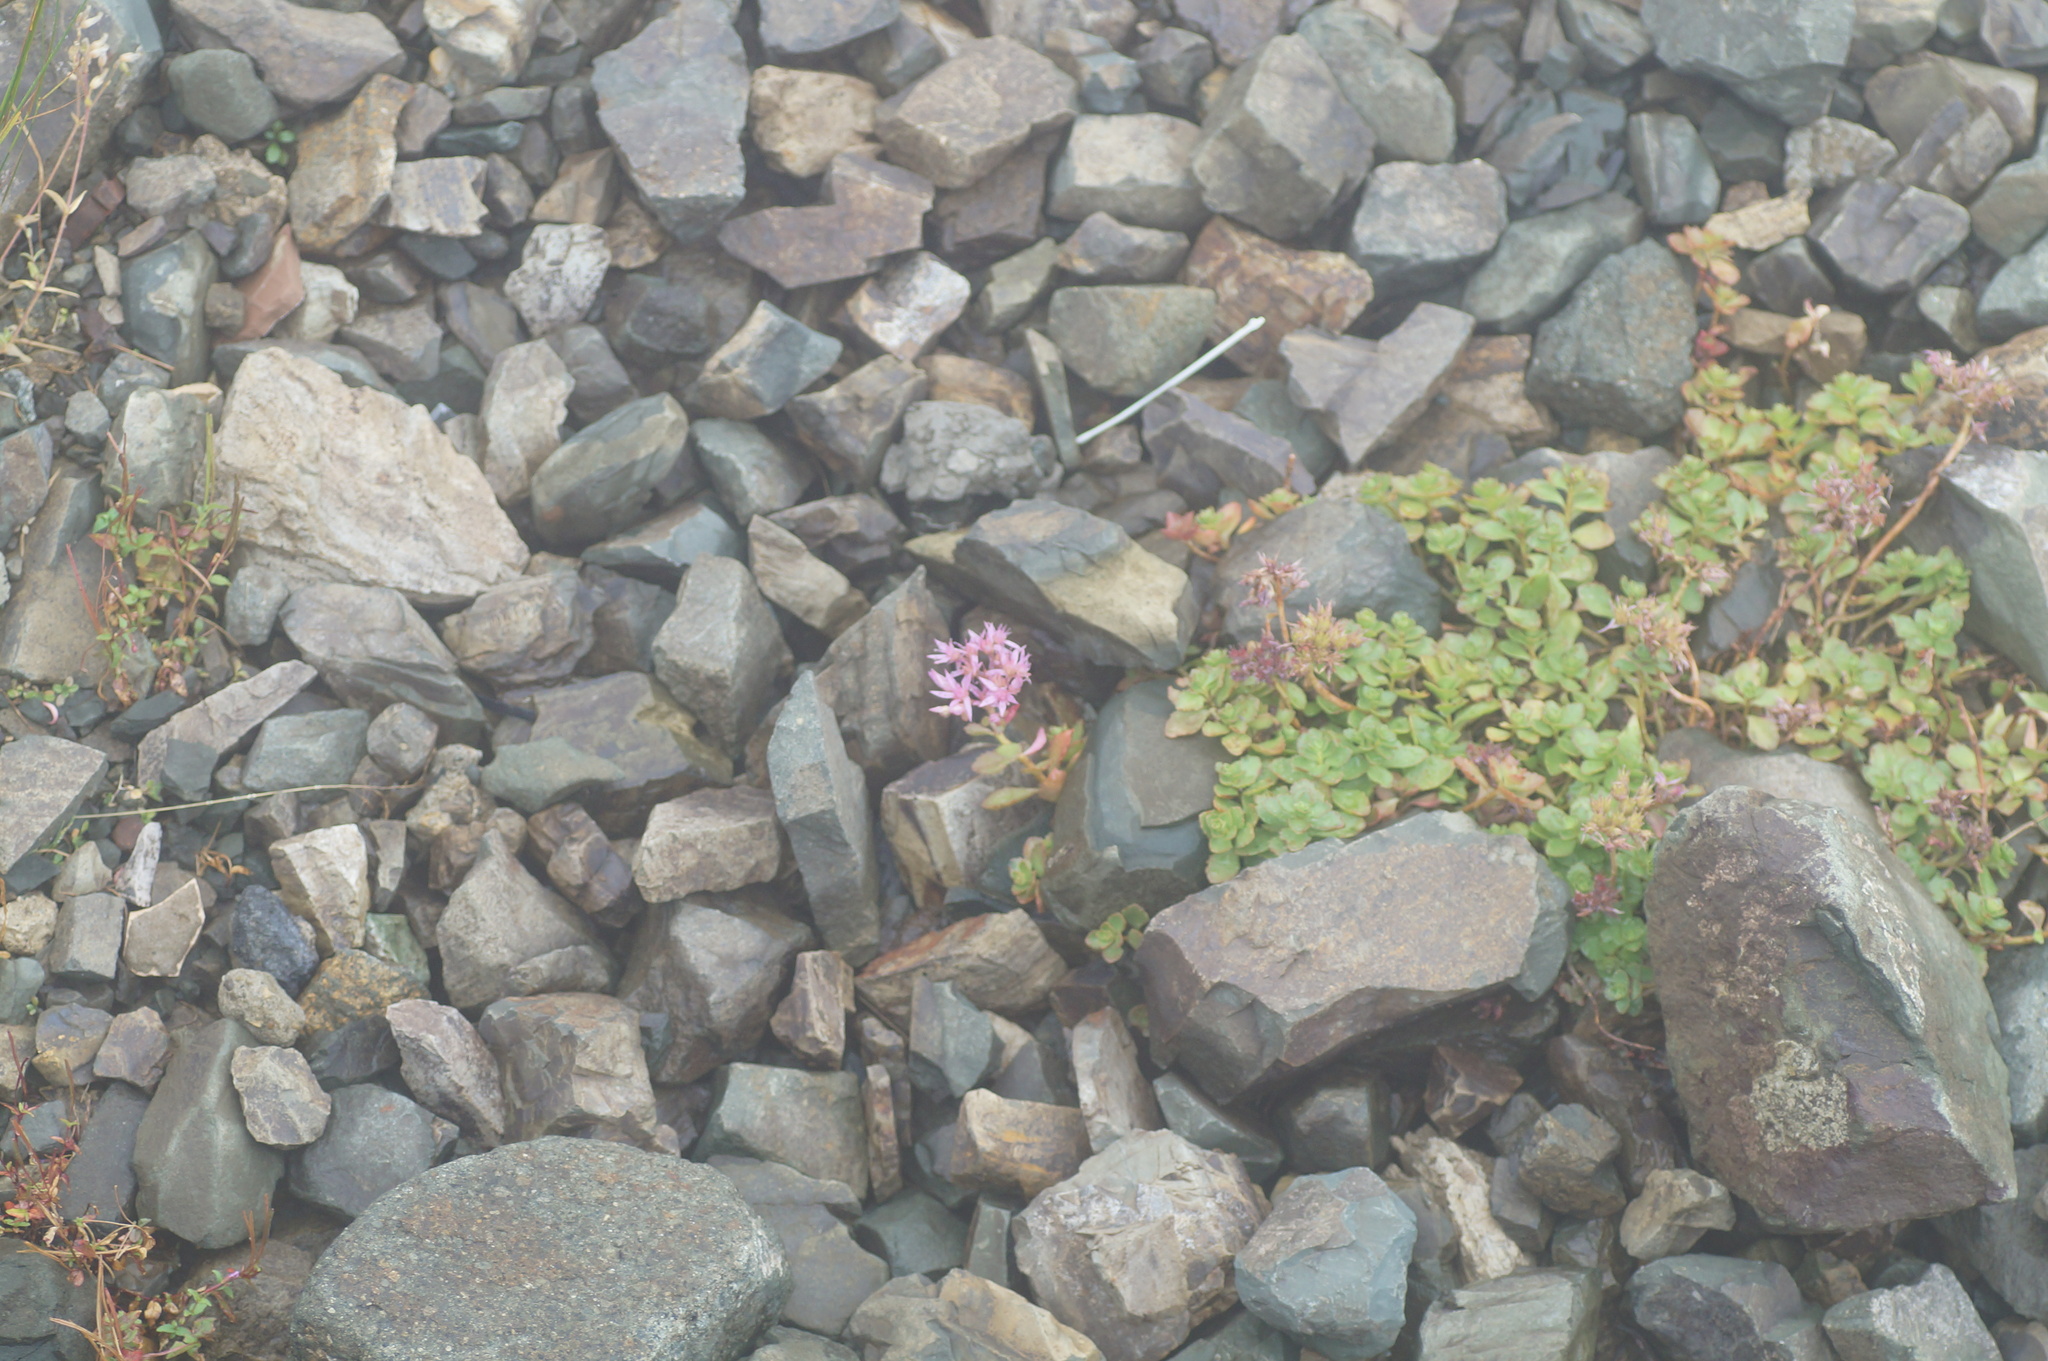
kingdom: Plantae
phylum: Tracheophyta
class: Magnoliopsida
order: Saxifragales
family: Crassulaceae
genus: Phedimus
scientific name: Phedimus spurius
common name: Caucasian stonecrop
